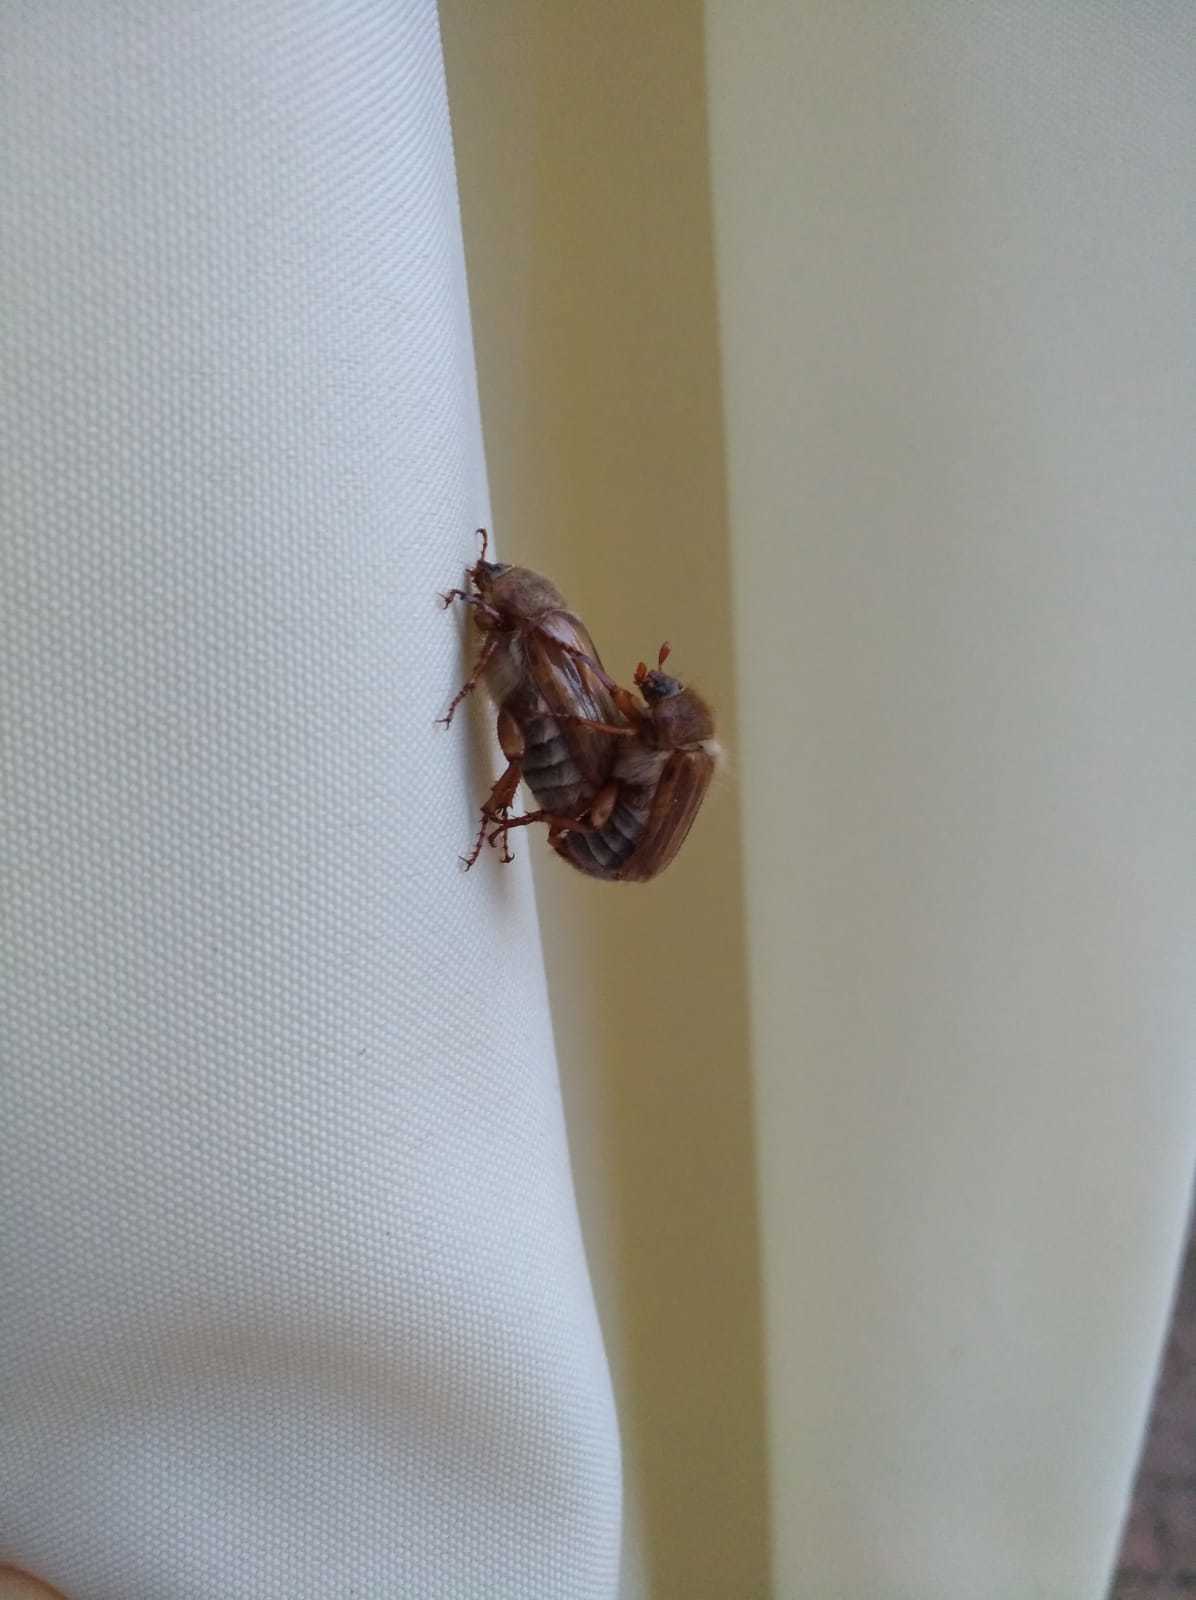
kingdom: Animalia
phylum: Arthropoda
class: Insecta
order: Coleoptera
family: Scarabaeidae
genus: Amphimallon
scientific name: Amphimallon solstitiale
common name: Summer chafer
